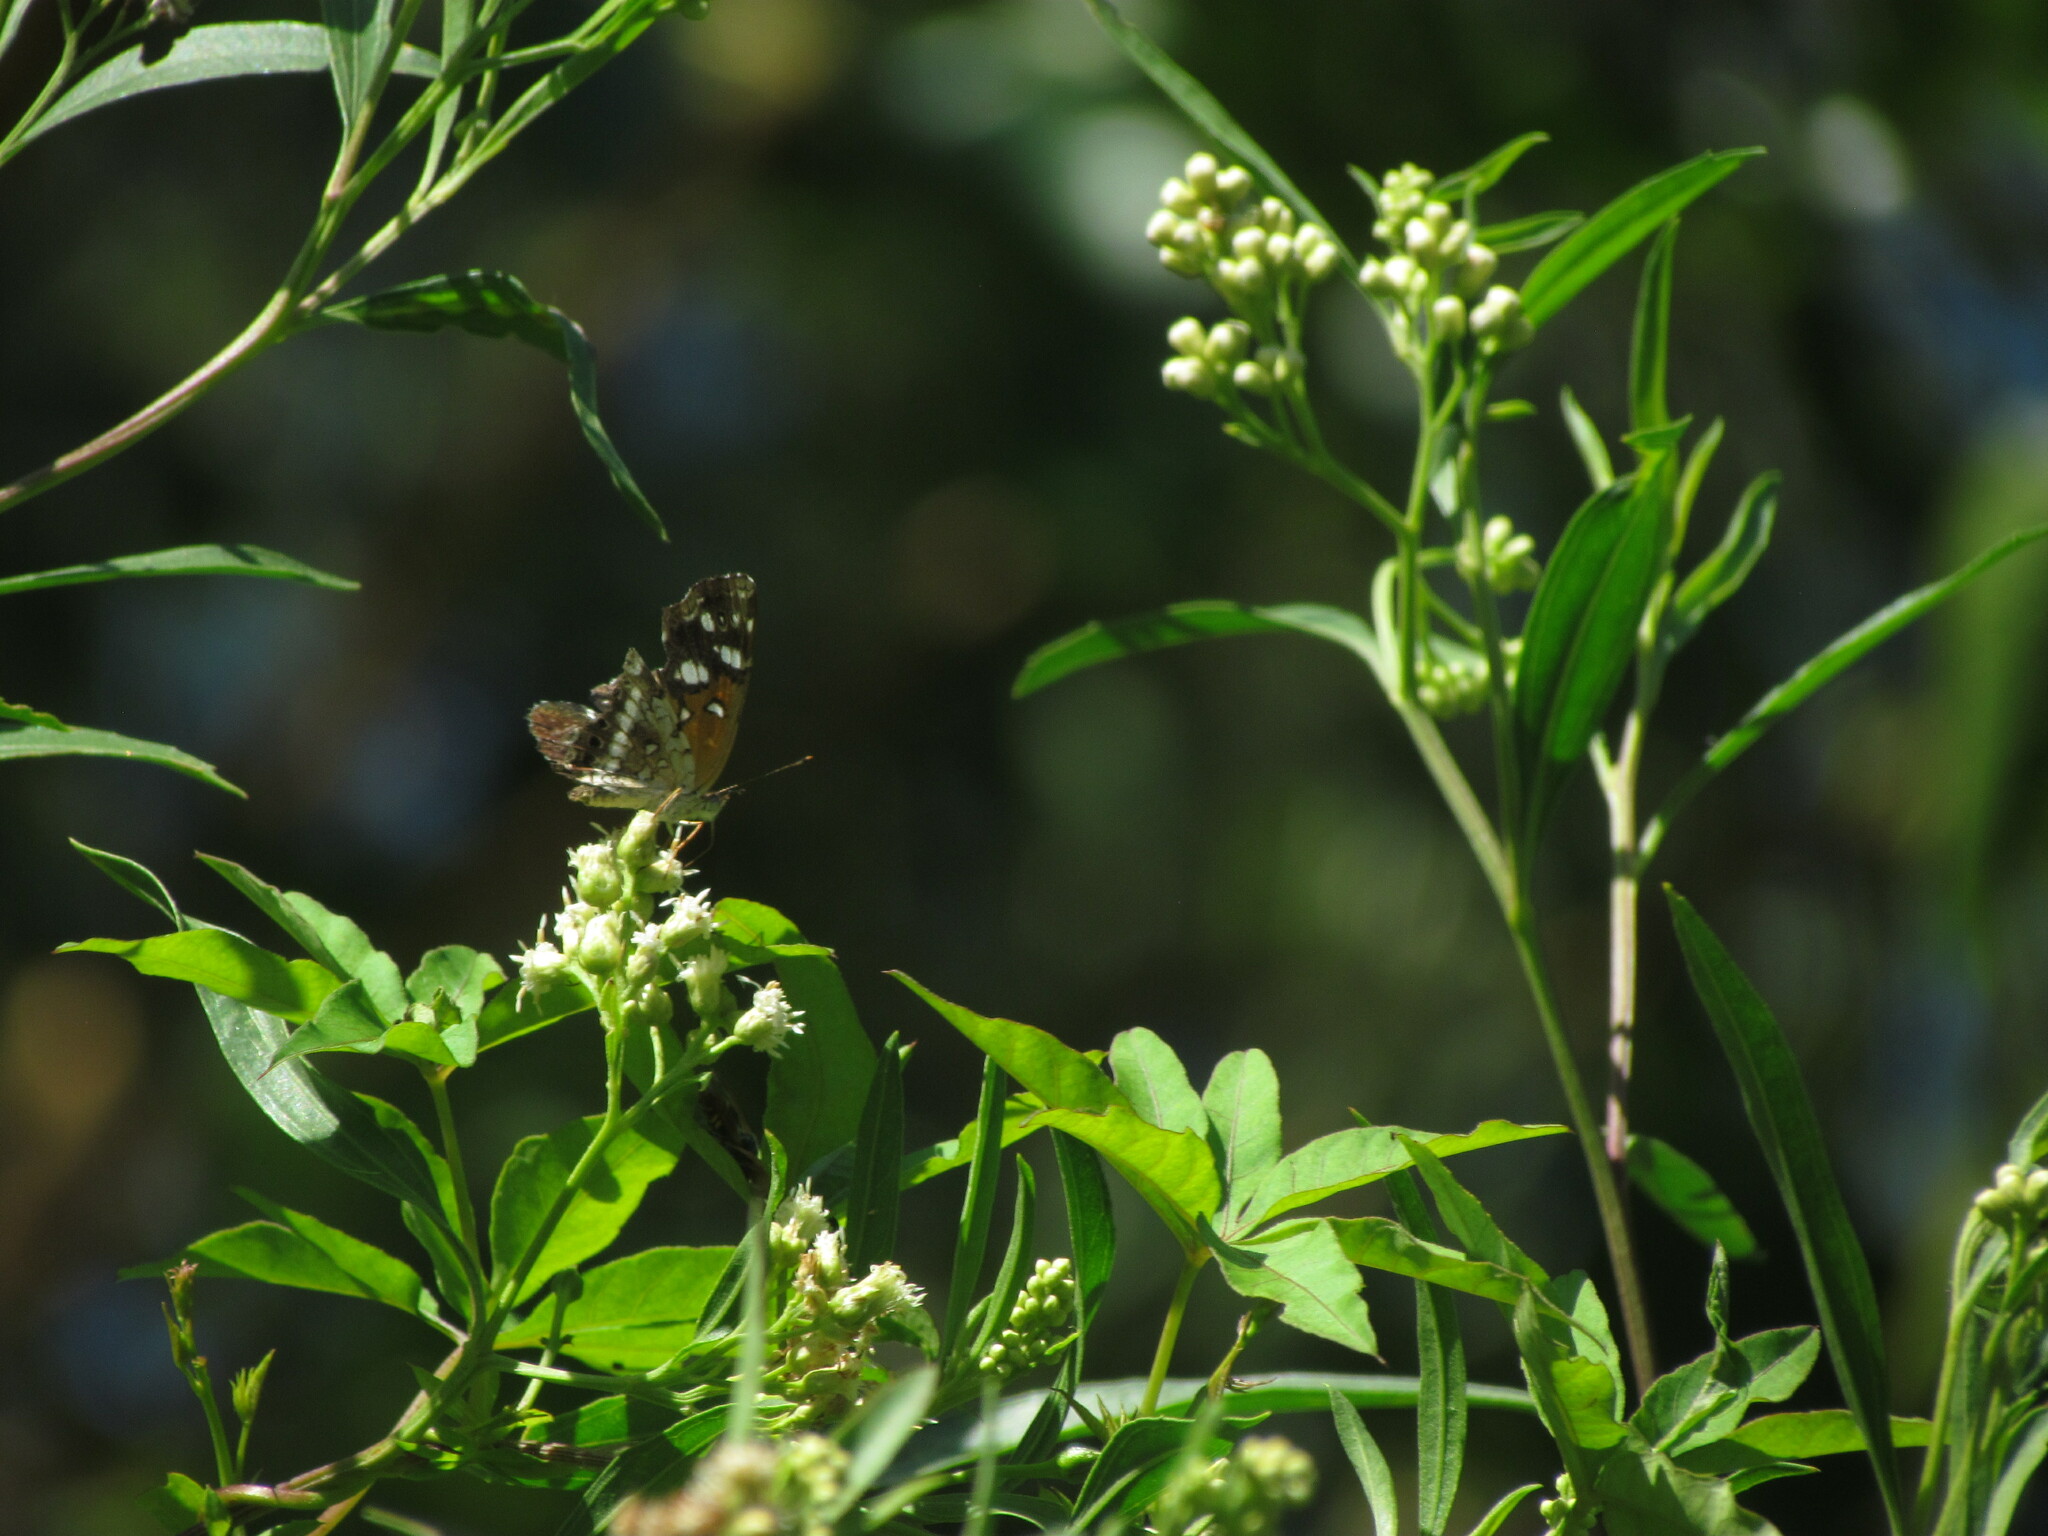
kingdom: Animalia
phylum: Arthropoda
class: Insecta
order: Lepidoptera
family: Nymphalidae
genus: Ortilia
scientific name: Ortilia ithra
